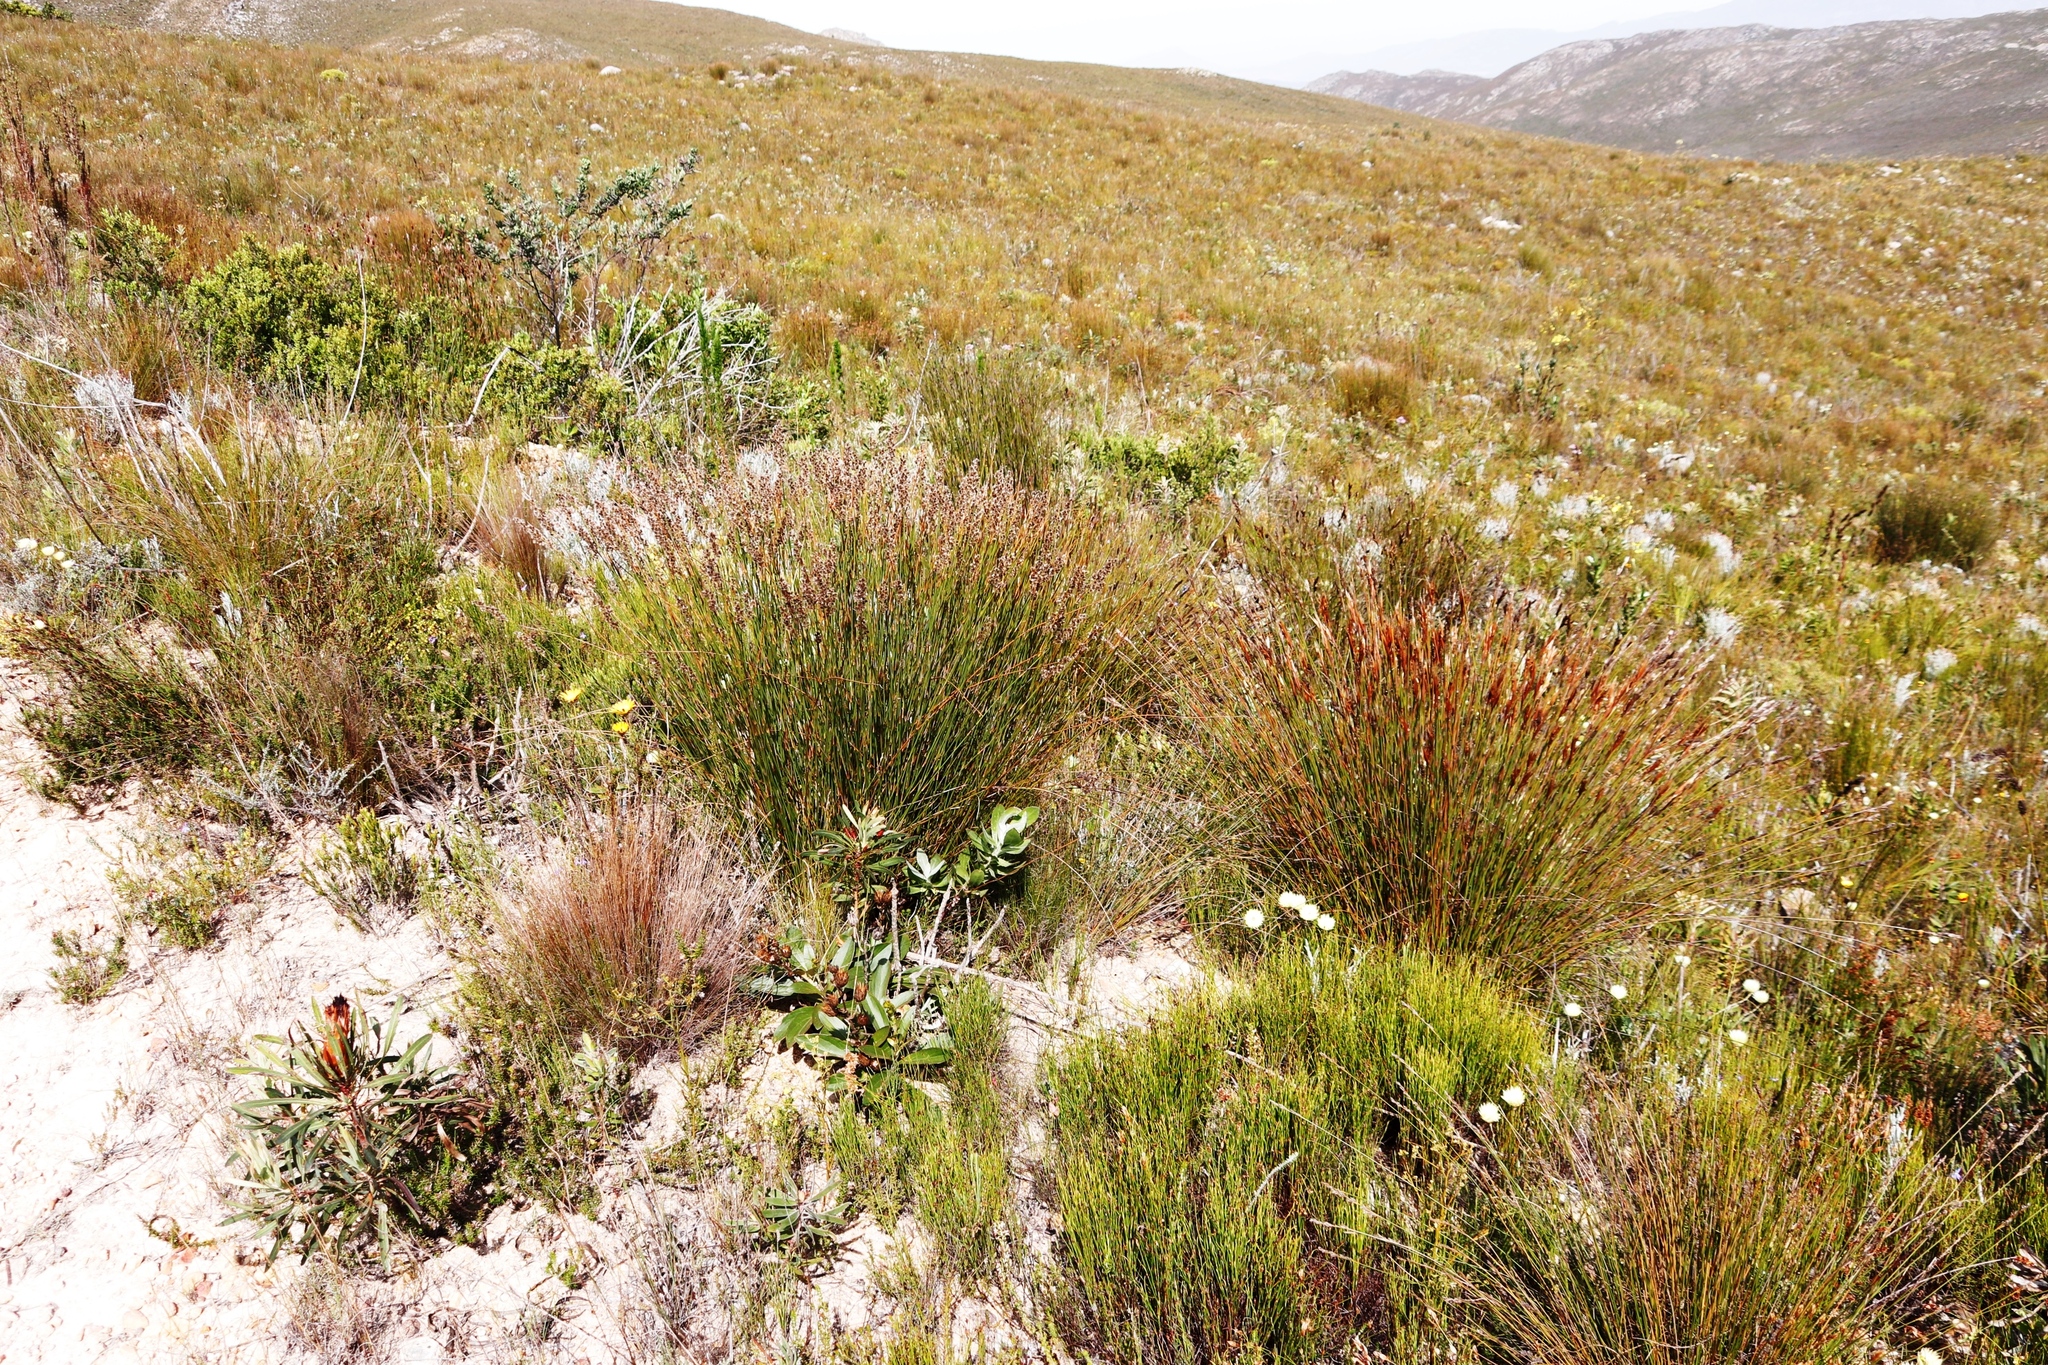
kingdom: Plantae
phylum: Tracheophyta
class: Liliopsida
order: Poales
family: Restionaceae
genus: Hypodiscus
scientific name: Hypodiscus argenteus
